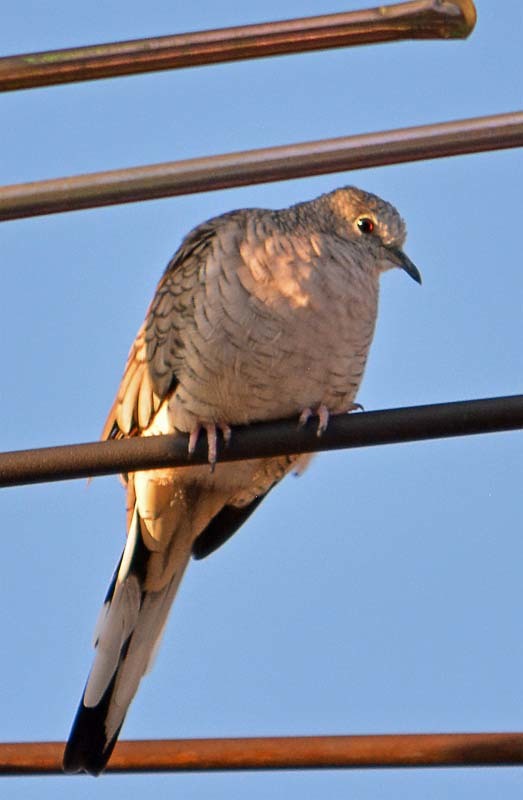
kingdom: Animalia
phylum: Chordata
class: Aves
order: Columbiformes
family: Columbidae
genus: Columbina
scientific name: Columbina inca
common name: Inca dove
